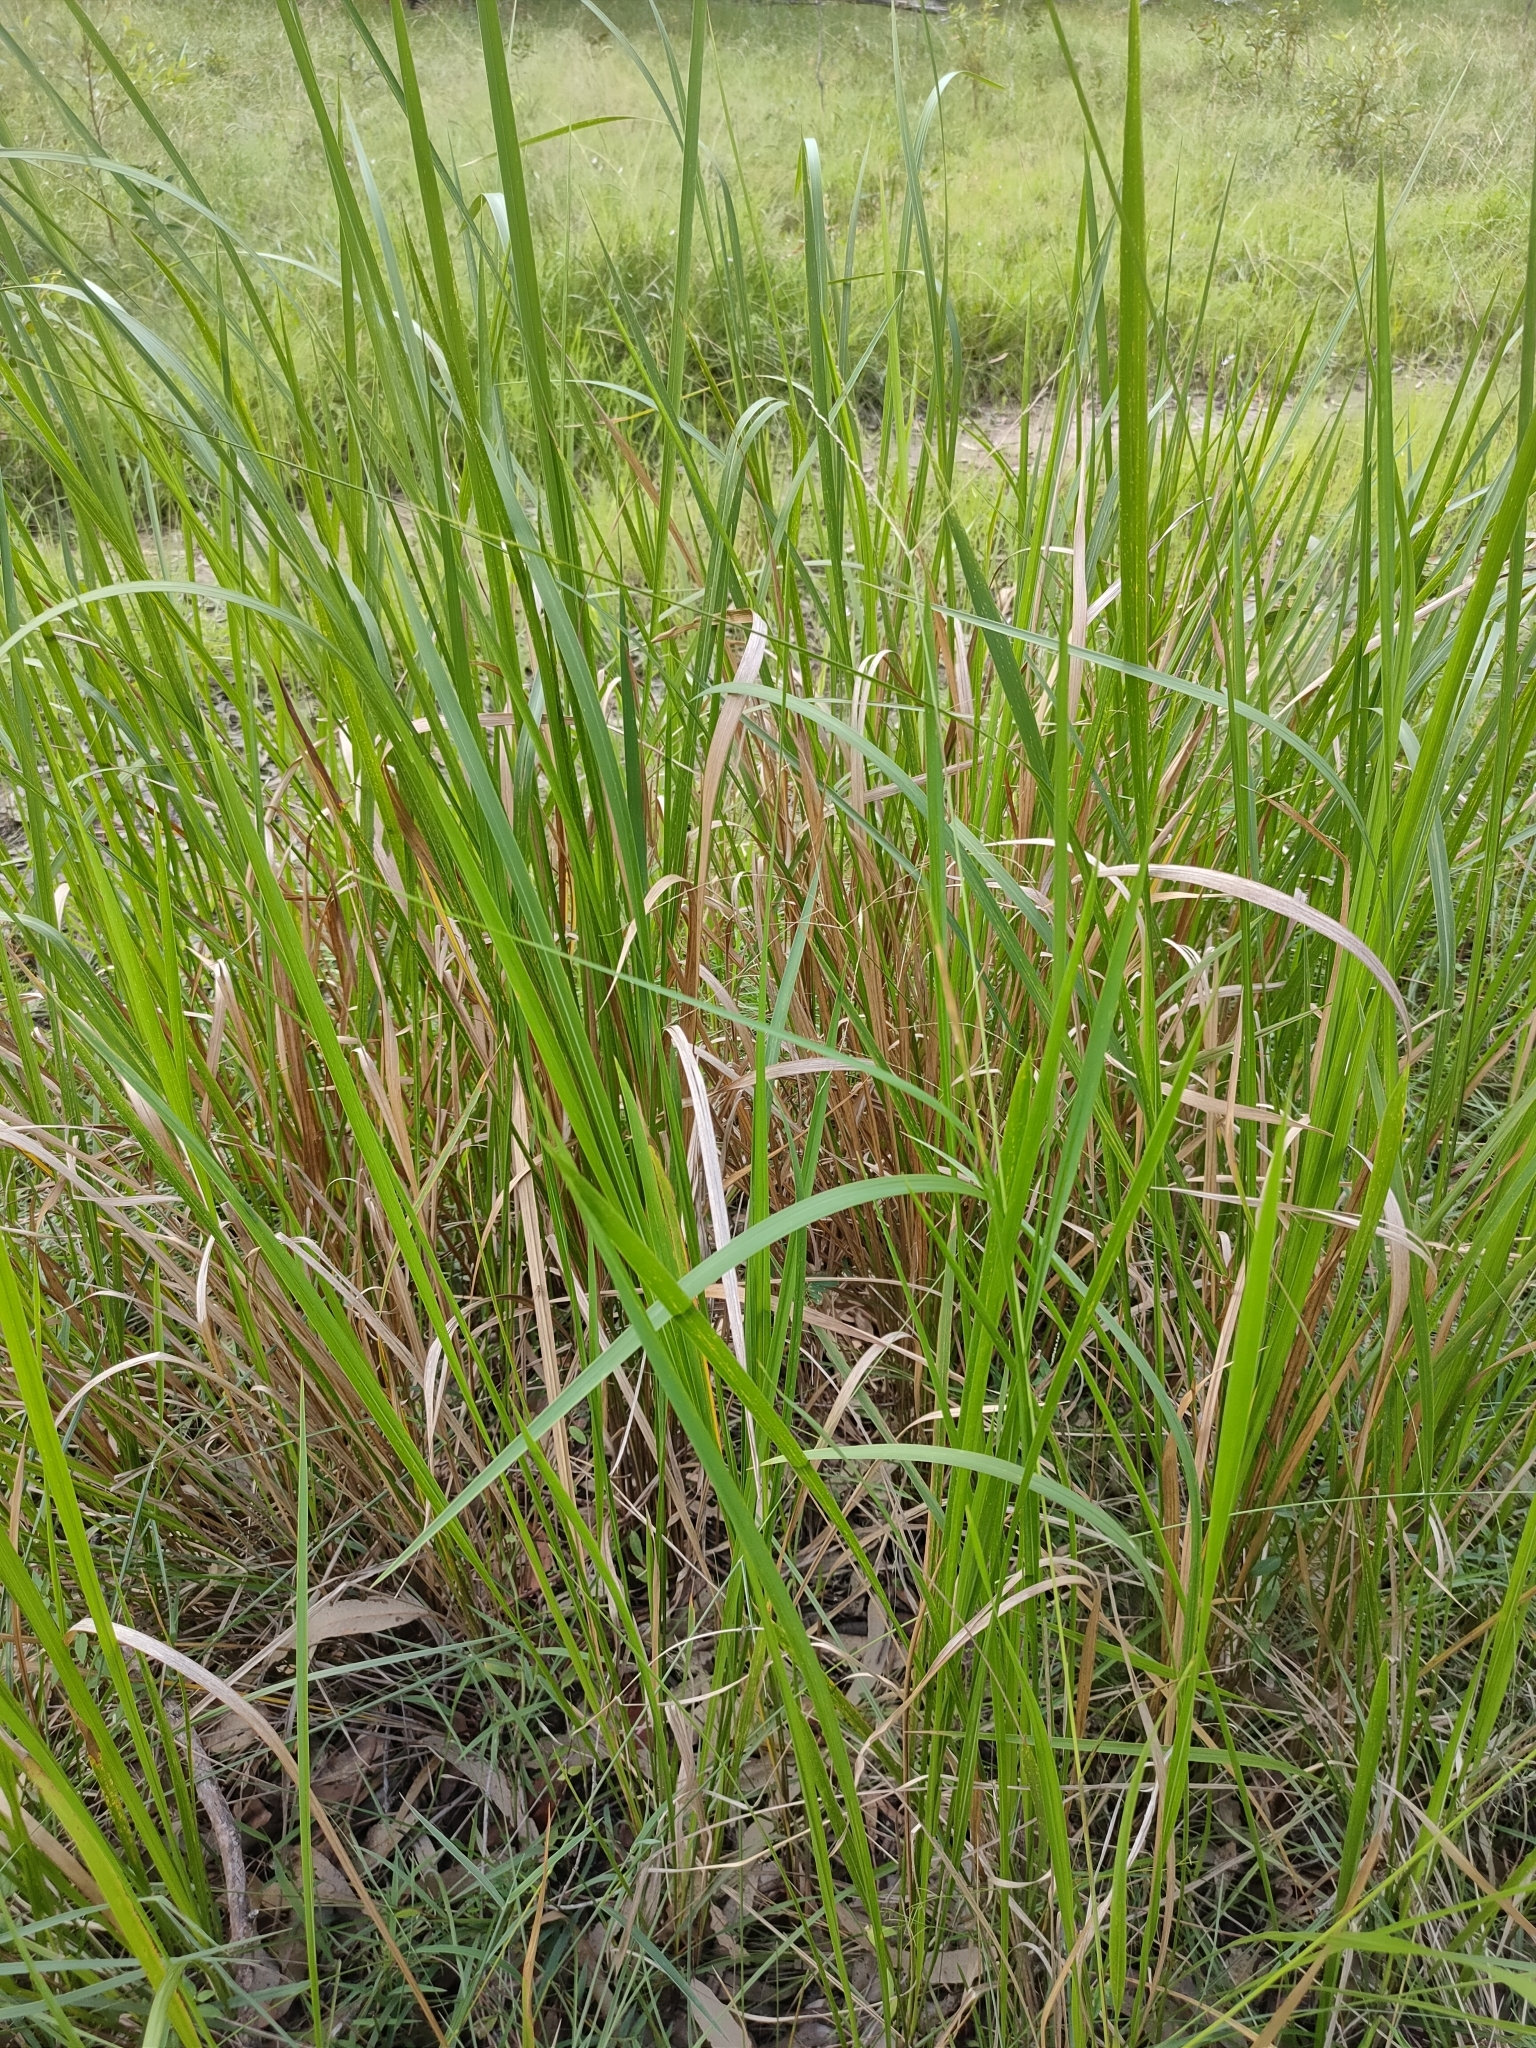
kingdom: Plantae
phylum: Tracheophyta
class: Liliopsida
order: Poales
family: Poaceae
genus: Imperata
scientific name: Imperata cylindrica
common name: Cogongrass
